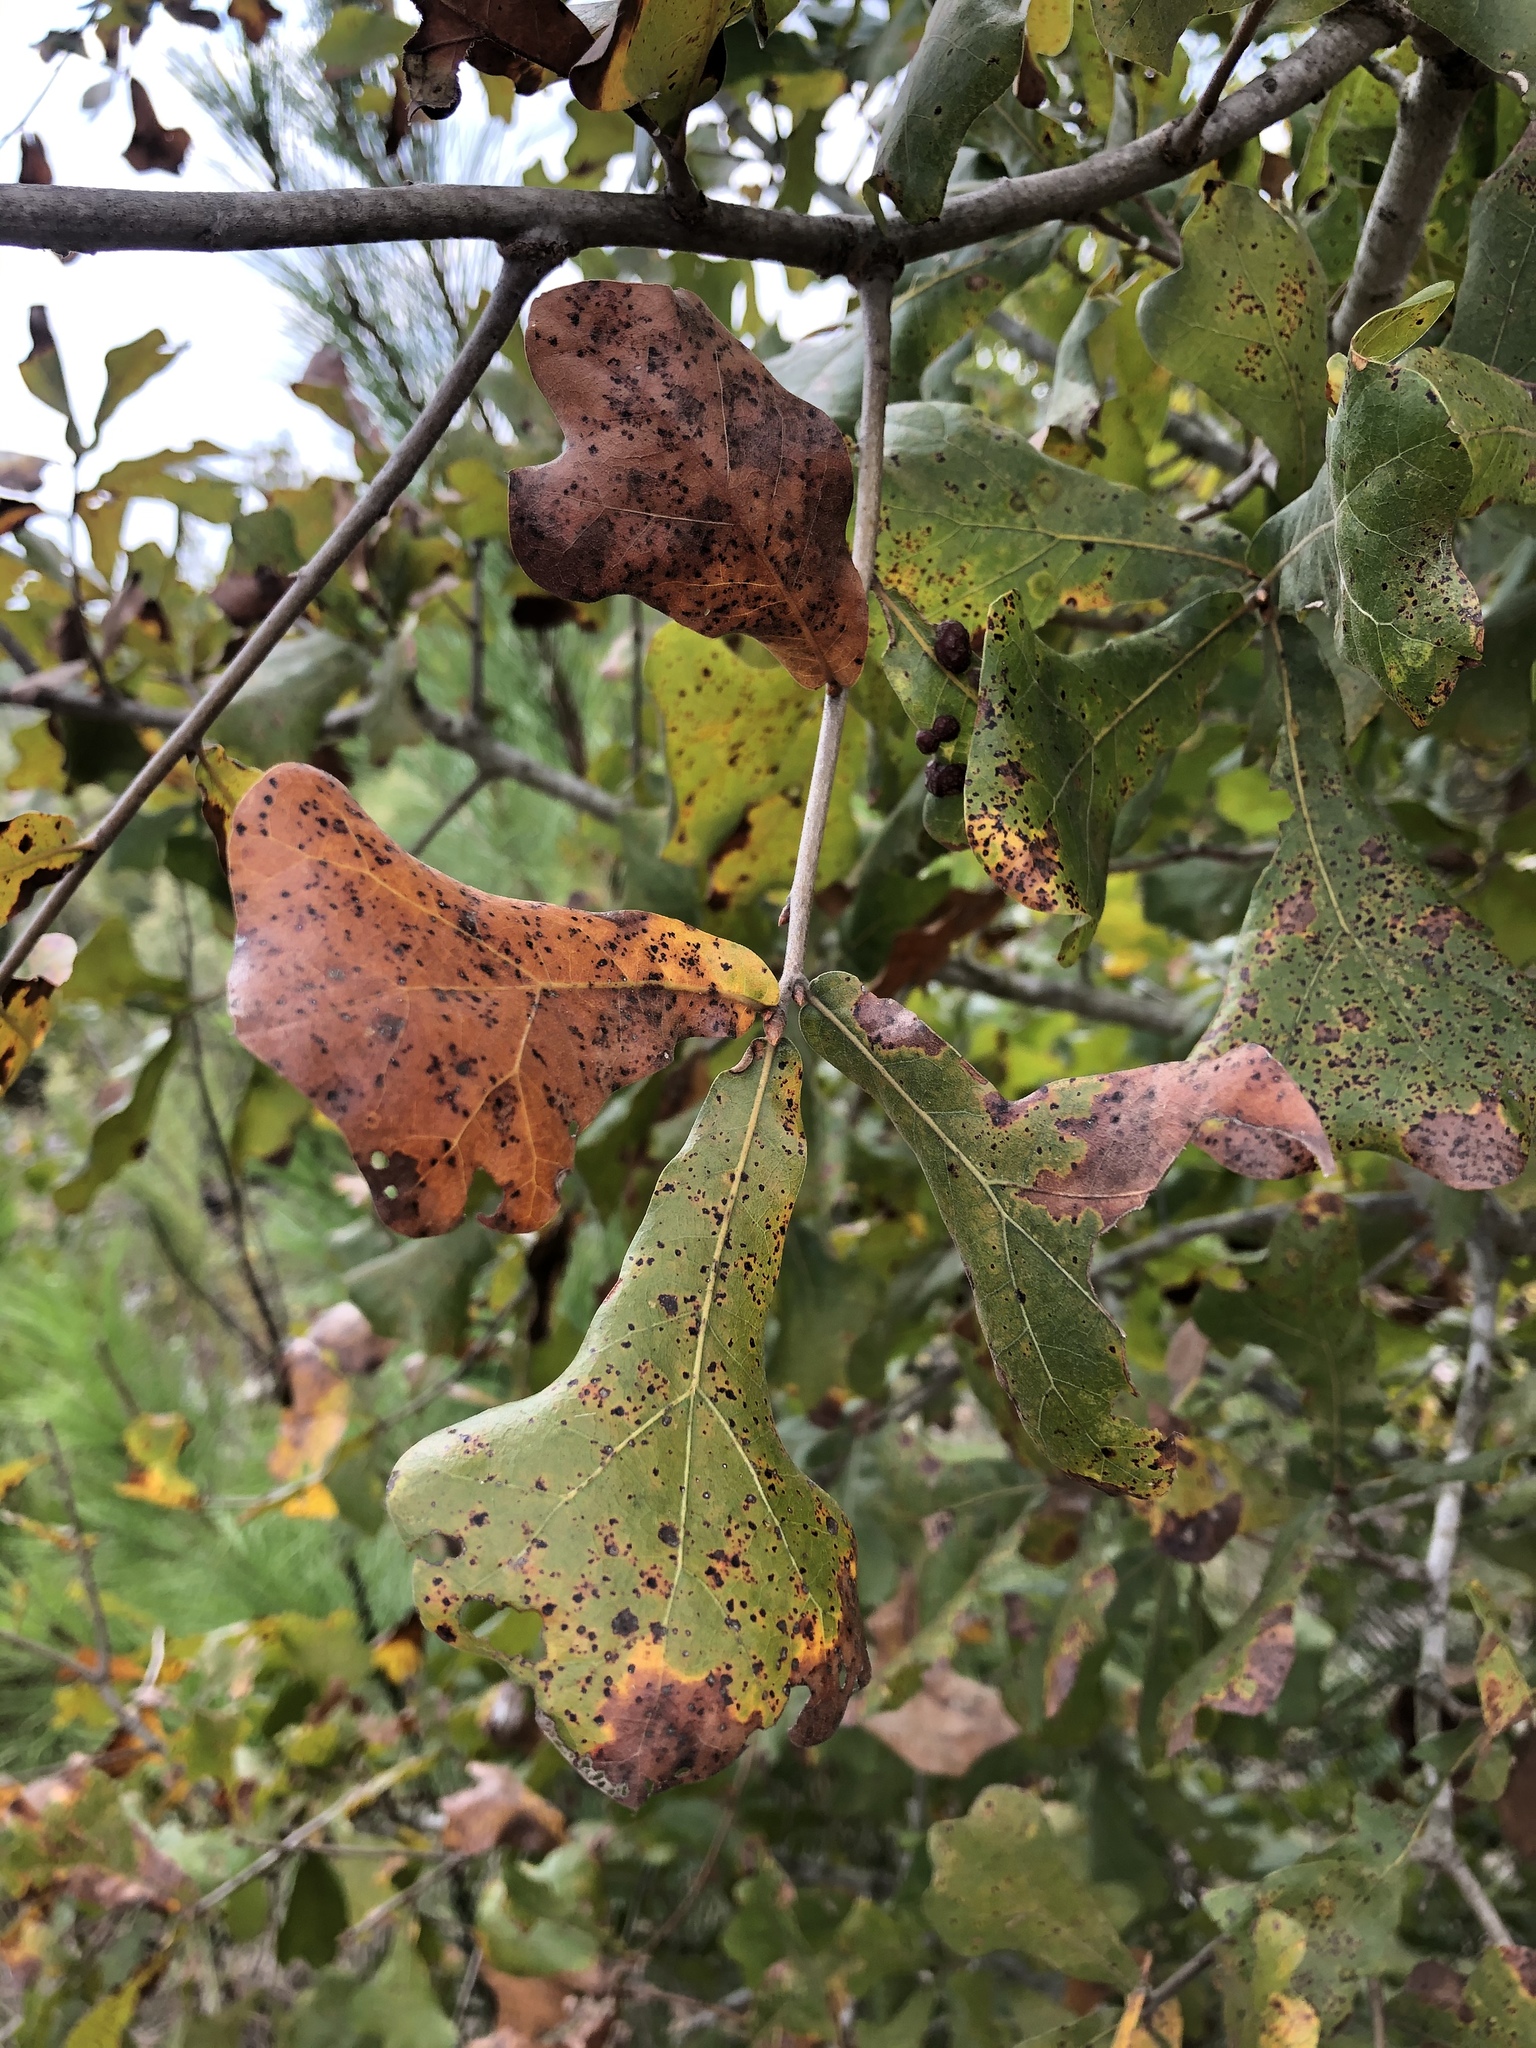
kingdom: Plantae
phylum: Tracheophyta
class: Magnoliopsida
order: Fagales
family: Fagaceae
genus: Quercus
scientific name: Quercus marilandica
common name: Blackjack oak
